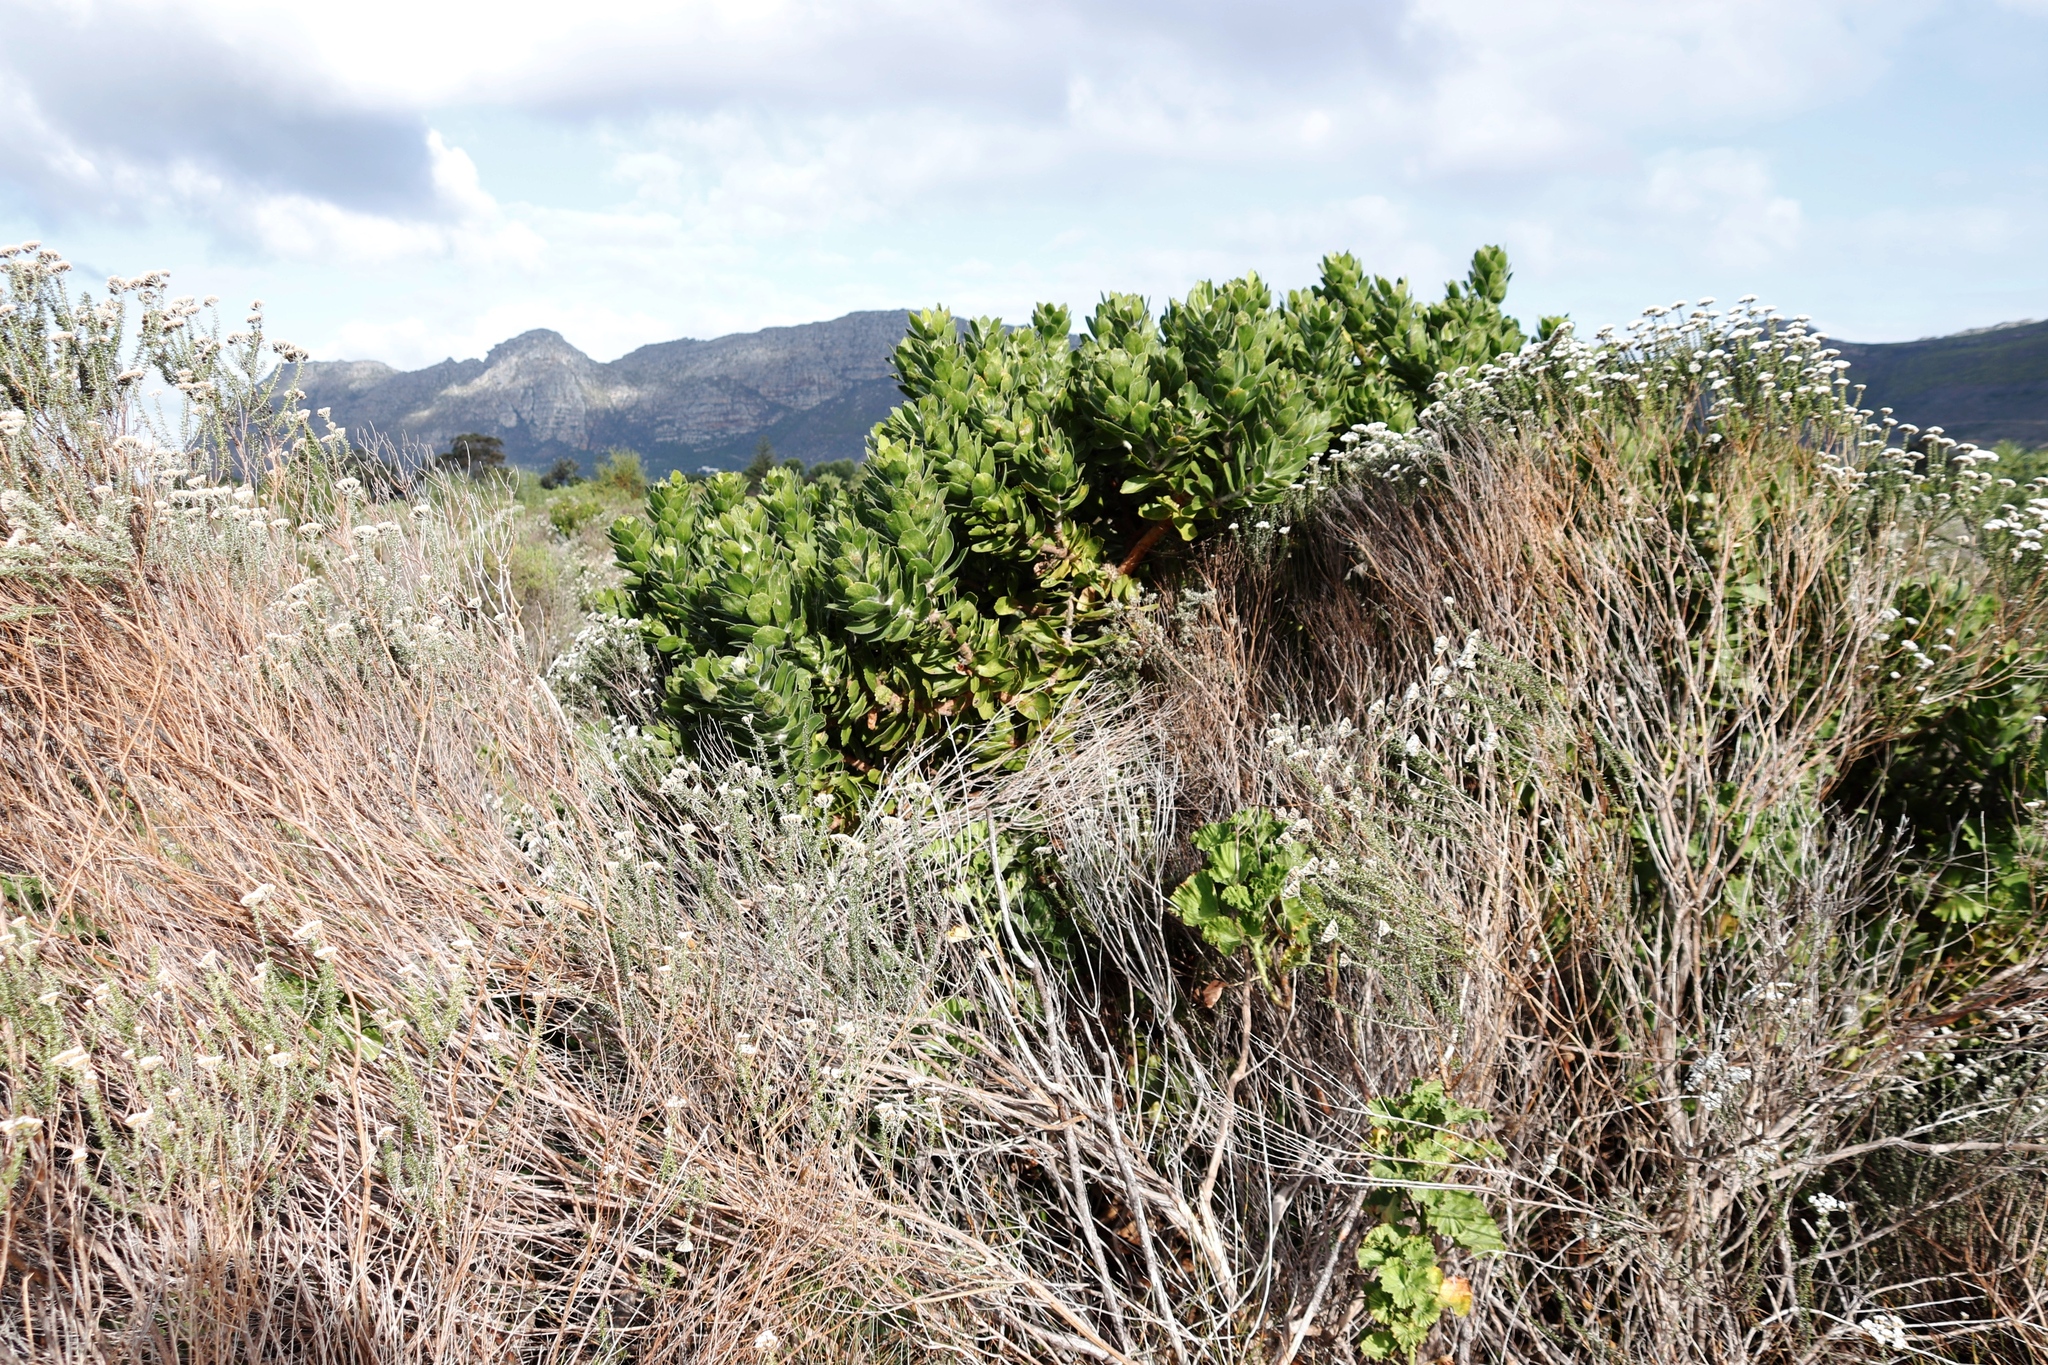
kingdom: Plantae
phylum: Tracheophyta
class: Magnoliopsida
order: Proteales
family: Proteaceae
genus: Leucospermum
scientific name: Leucospermum conocarpodendron
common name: Tree pincushion
